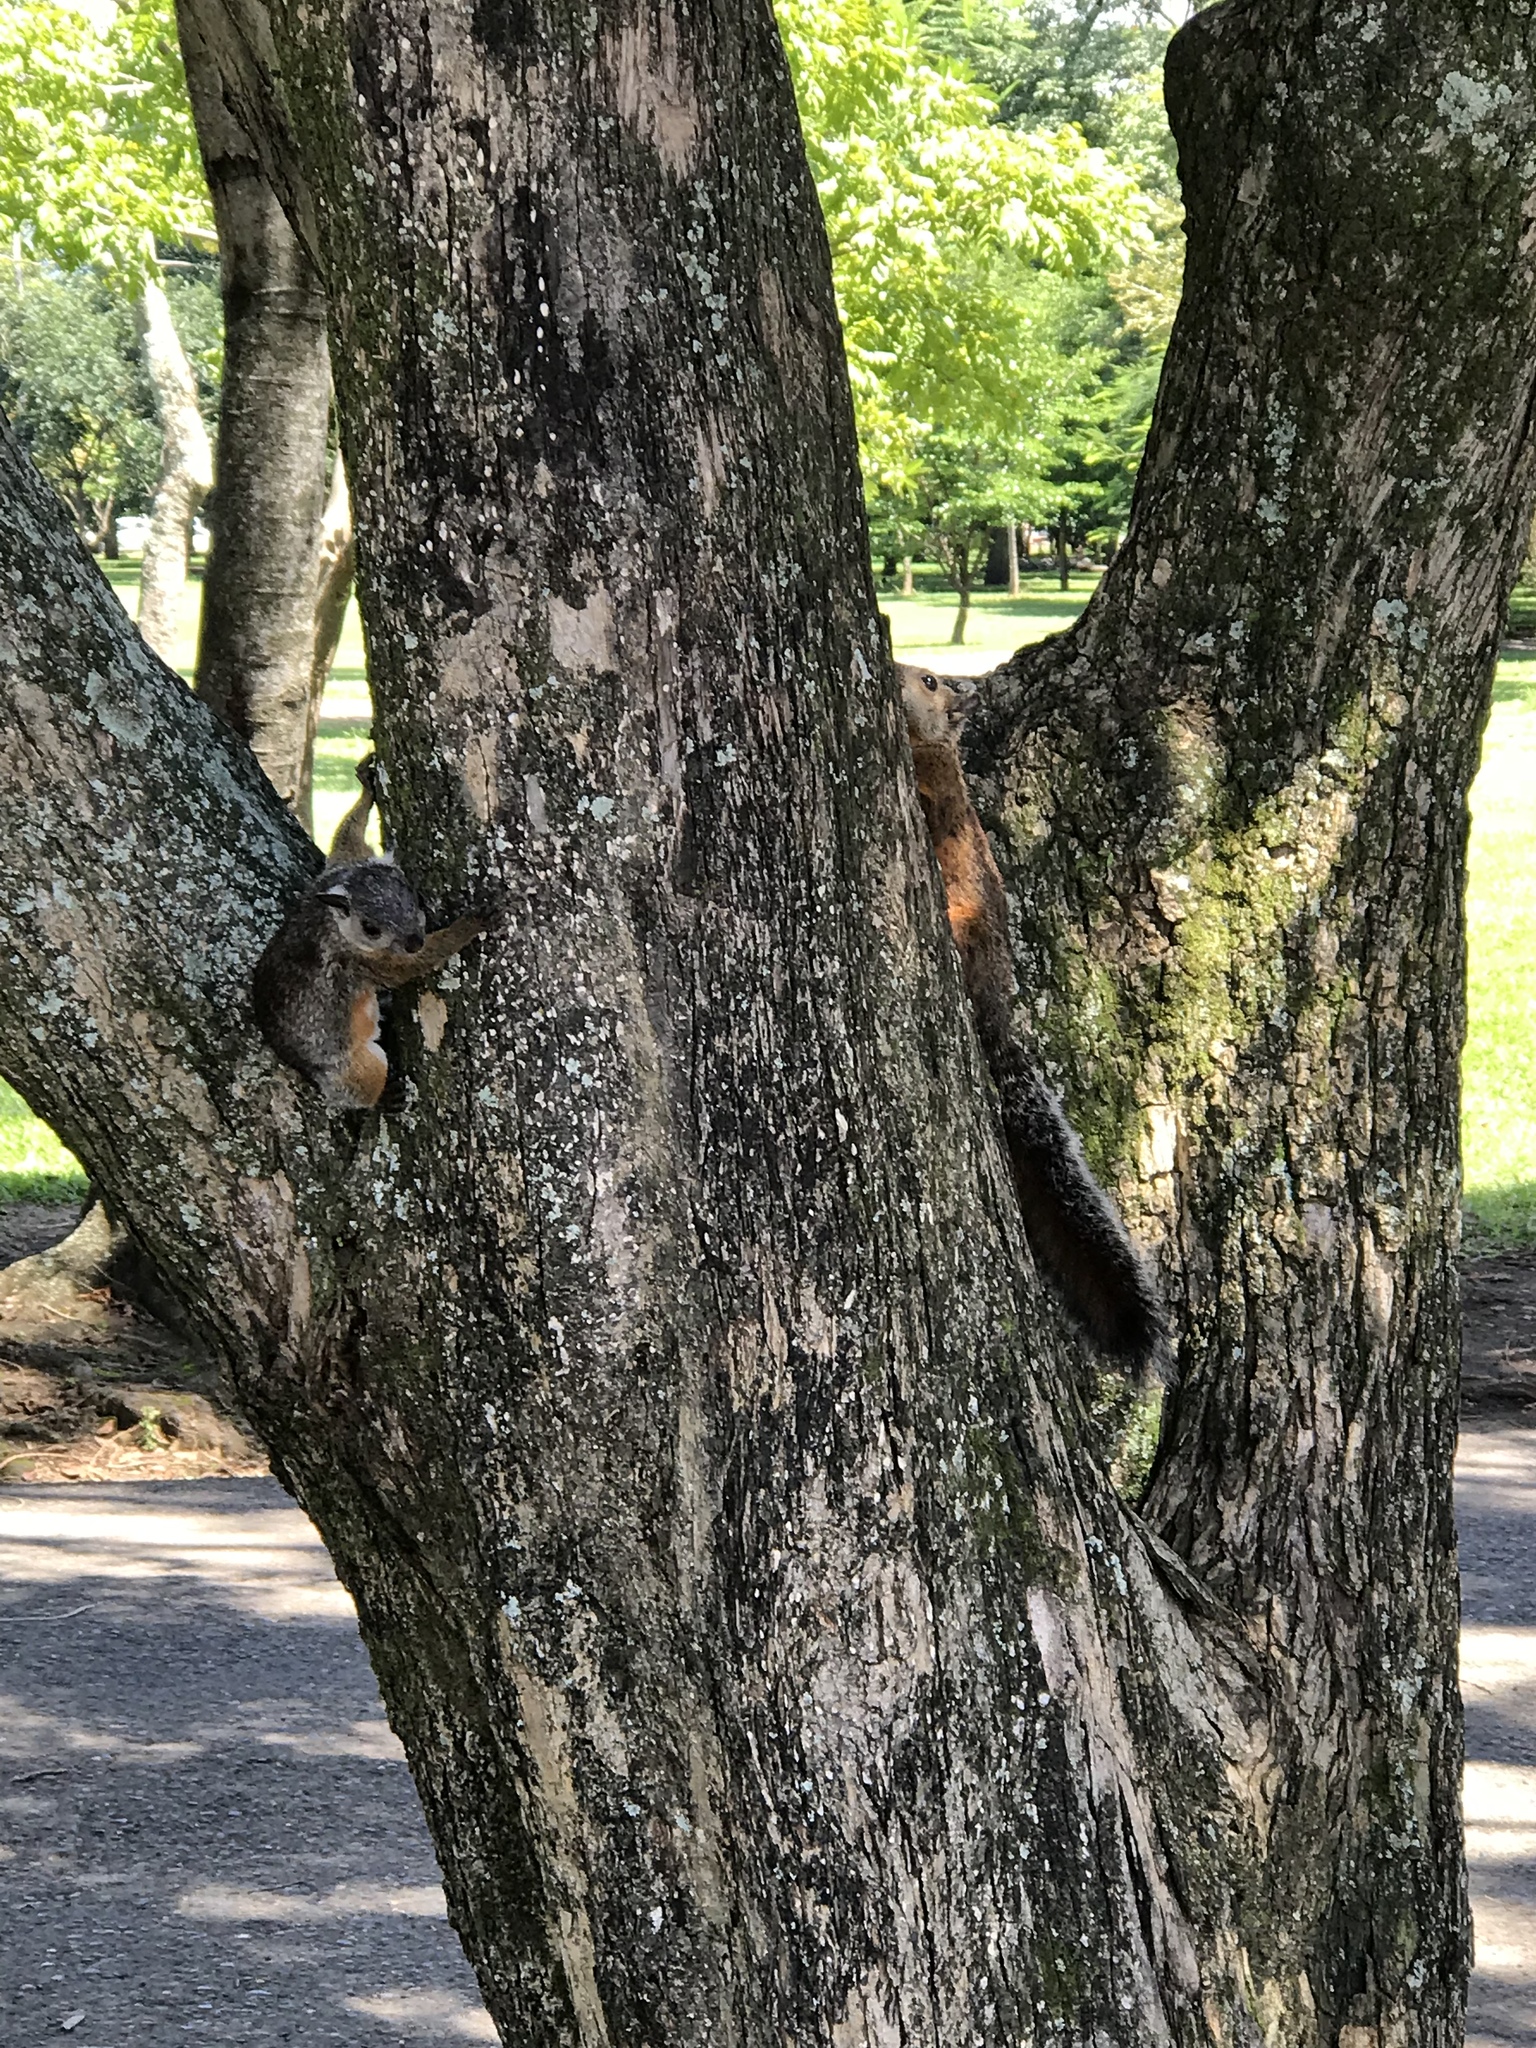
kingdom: Animalia
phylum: Chordata
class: Mammalia
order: Rodentia
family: Sciuridae
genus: Sciurus
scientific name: Sciurus variegatoides
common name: Variegated squirrel
